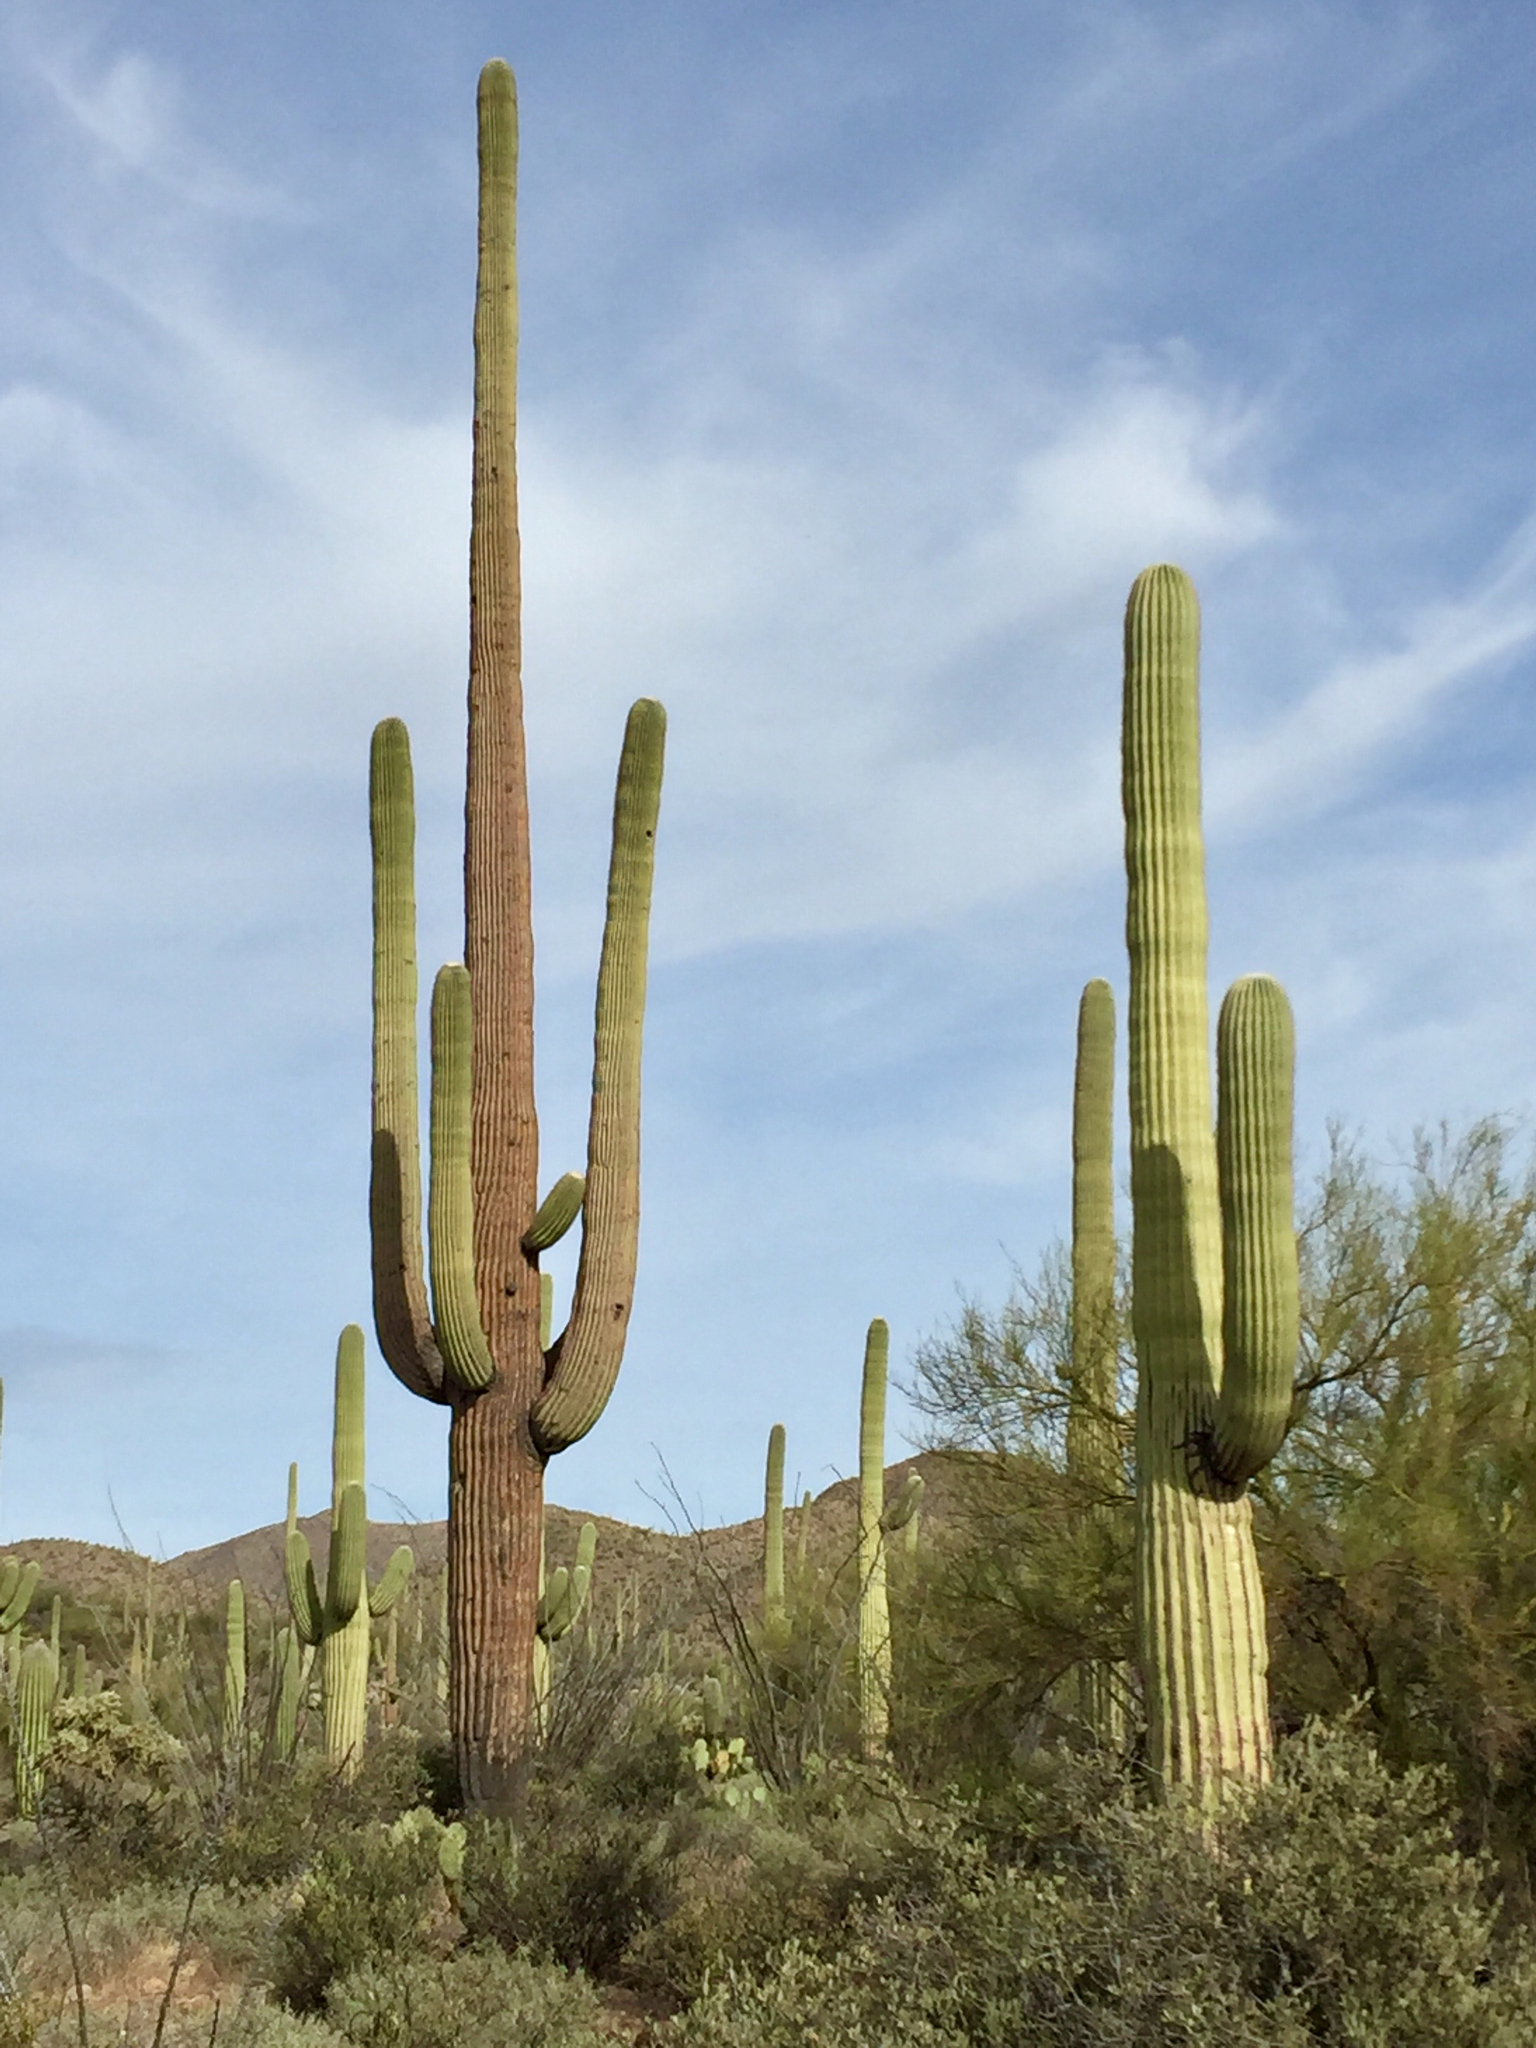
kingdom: Plantae
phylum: Tracheophyta
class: Magnoliopsida
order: Caryophyllales
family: Cactaceae
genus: Carnegiea
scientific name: Carnegiea gigantea
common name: Saguaro
